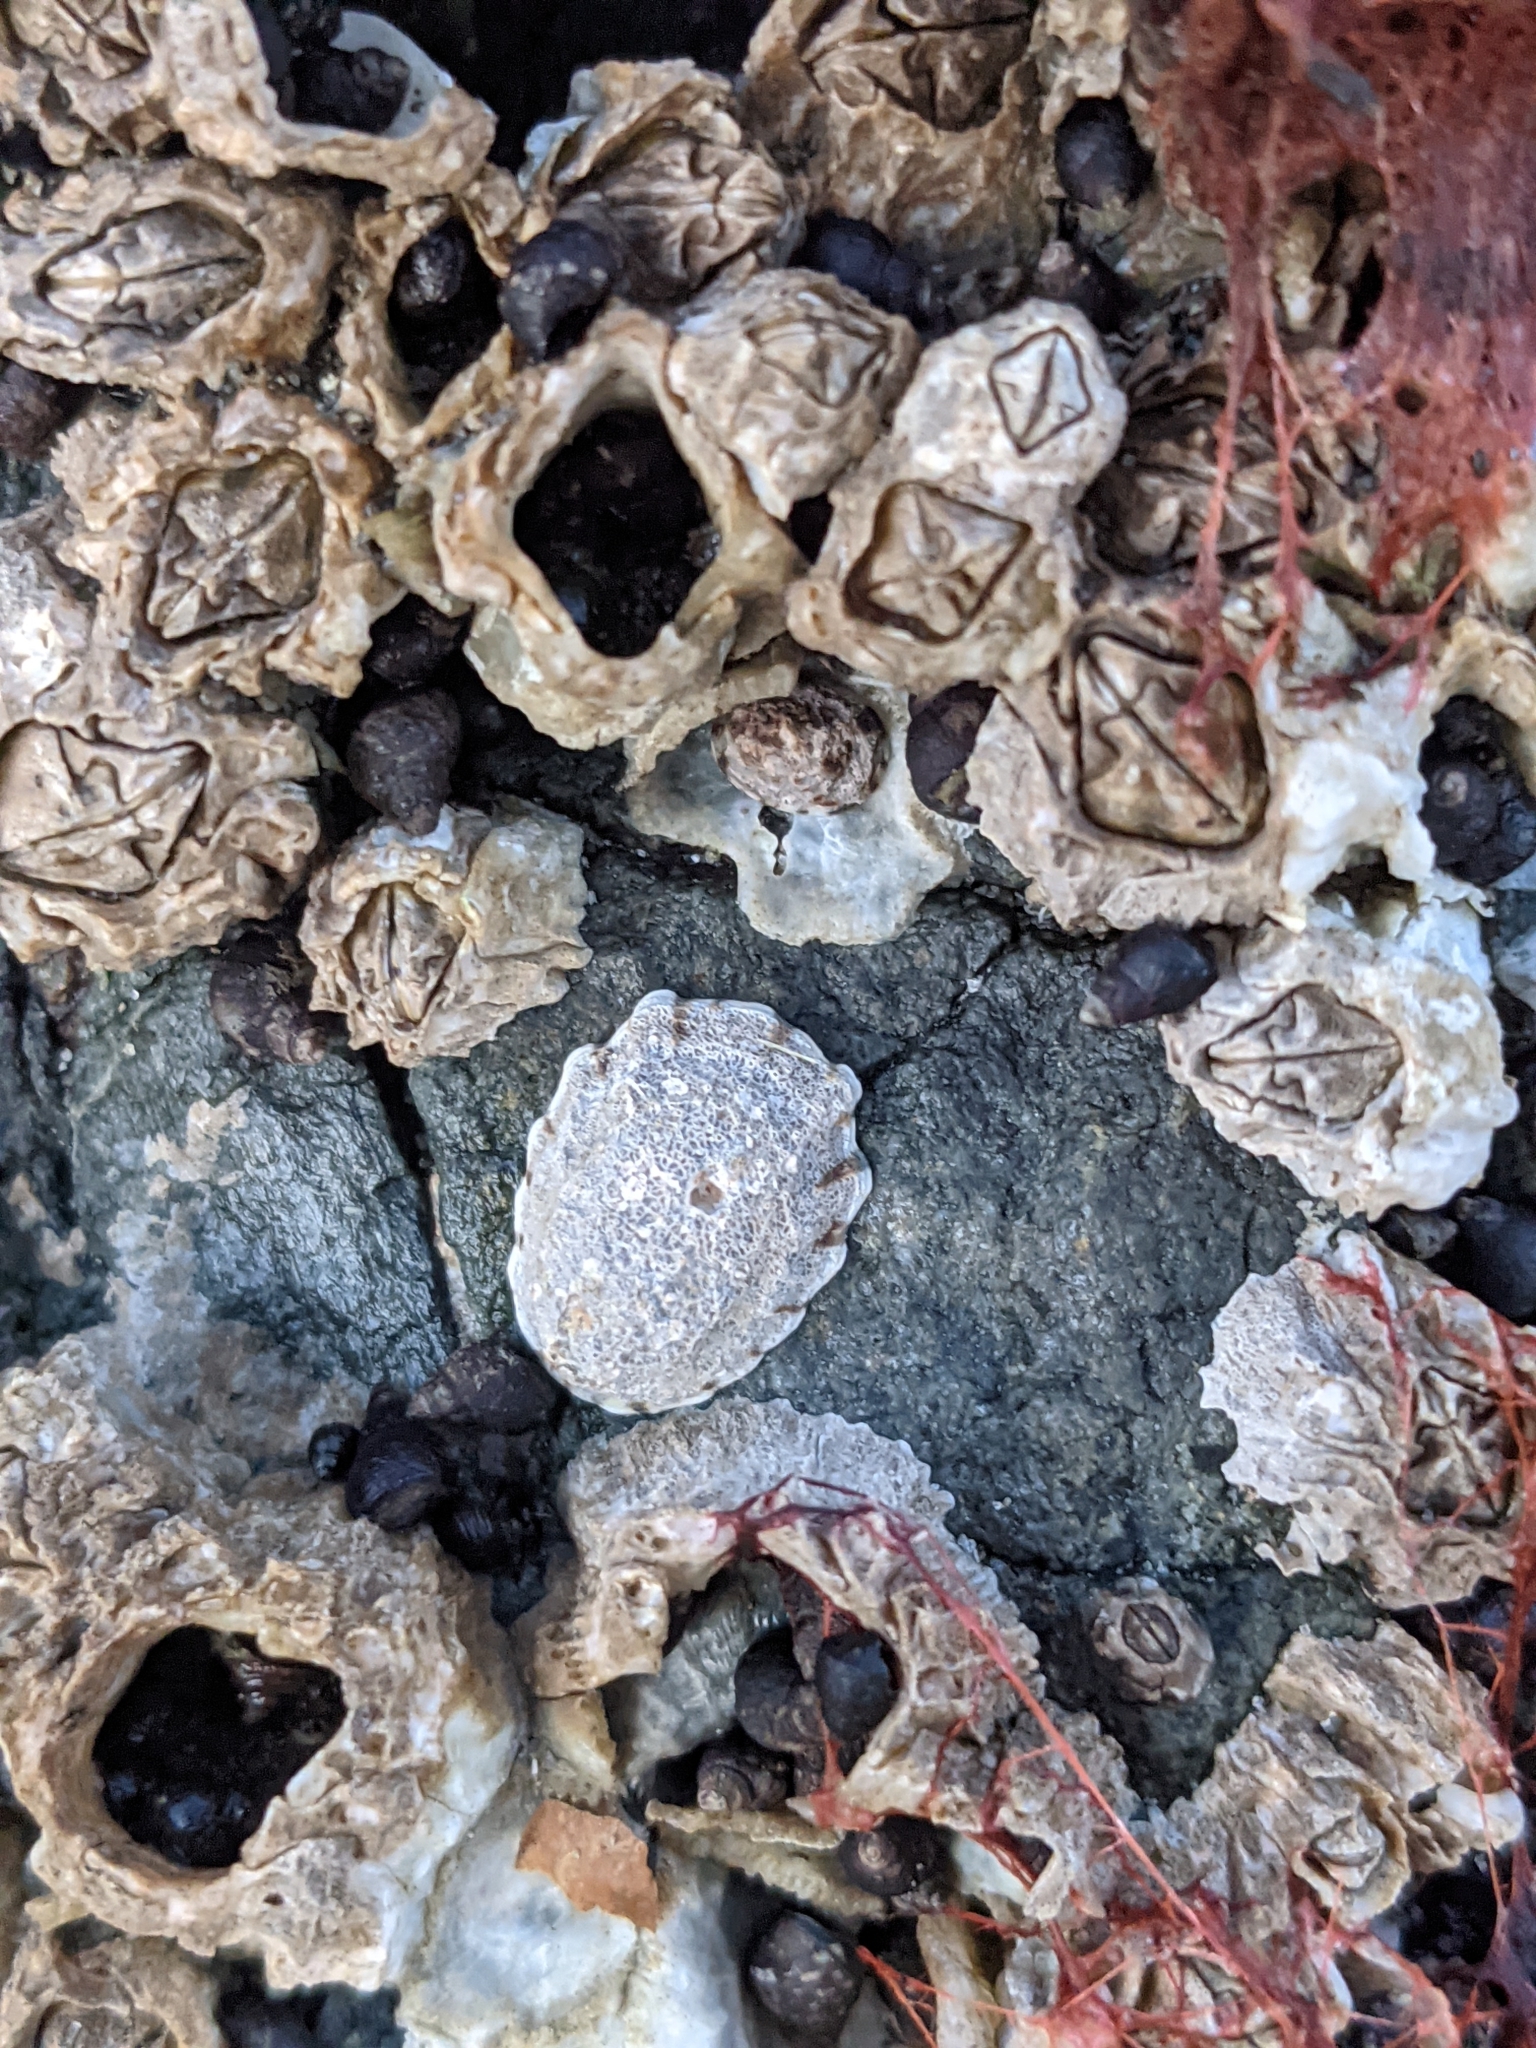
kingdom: Animalia
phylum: Mollusca
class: Gastropoda
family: Lottiidae
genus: Lottia
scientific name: Lottia digitalis
